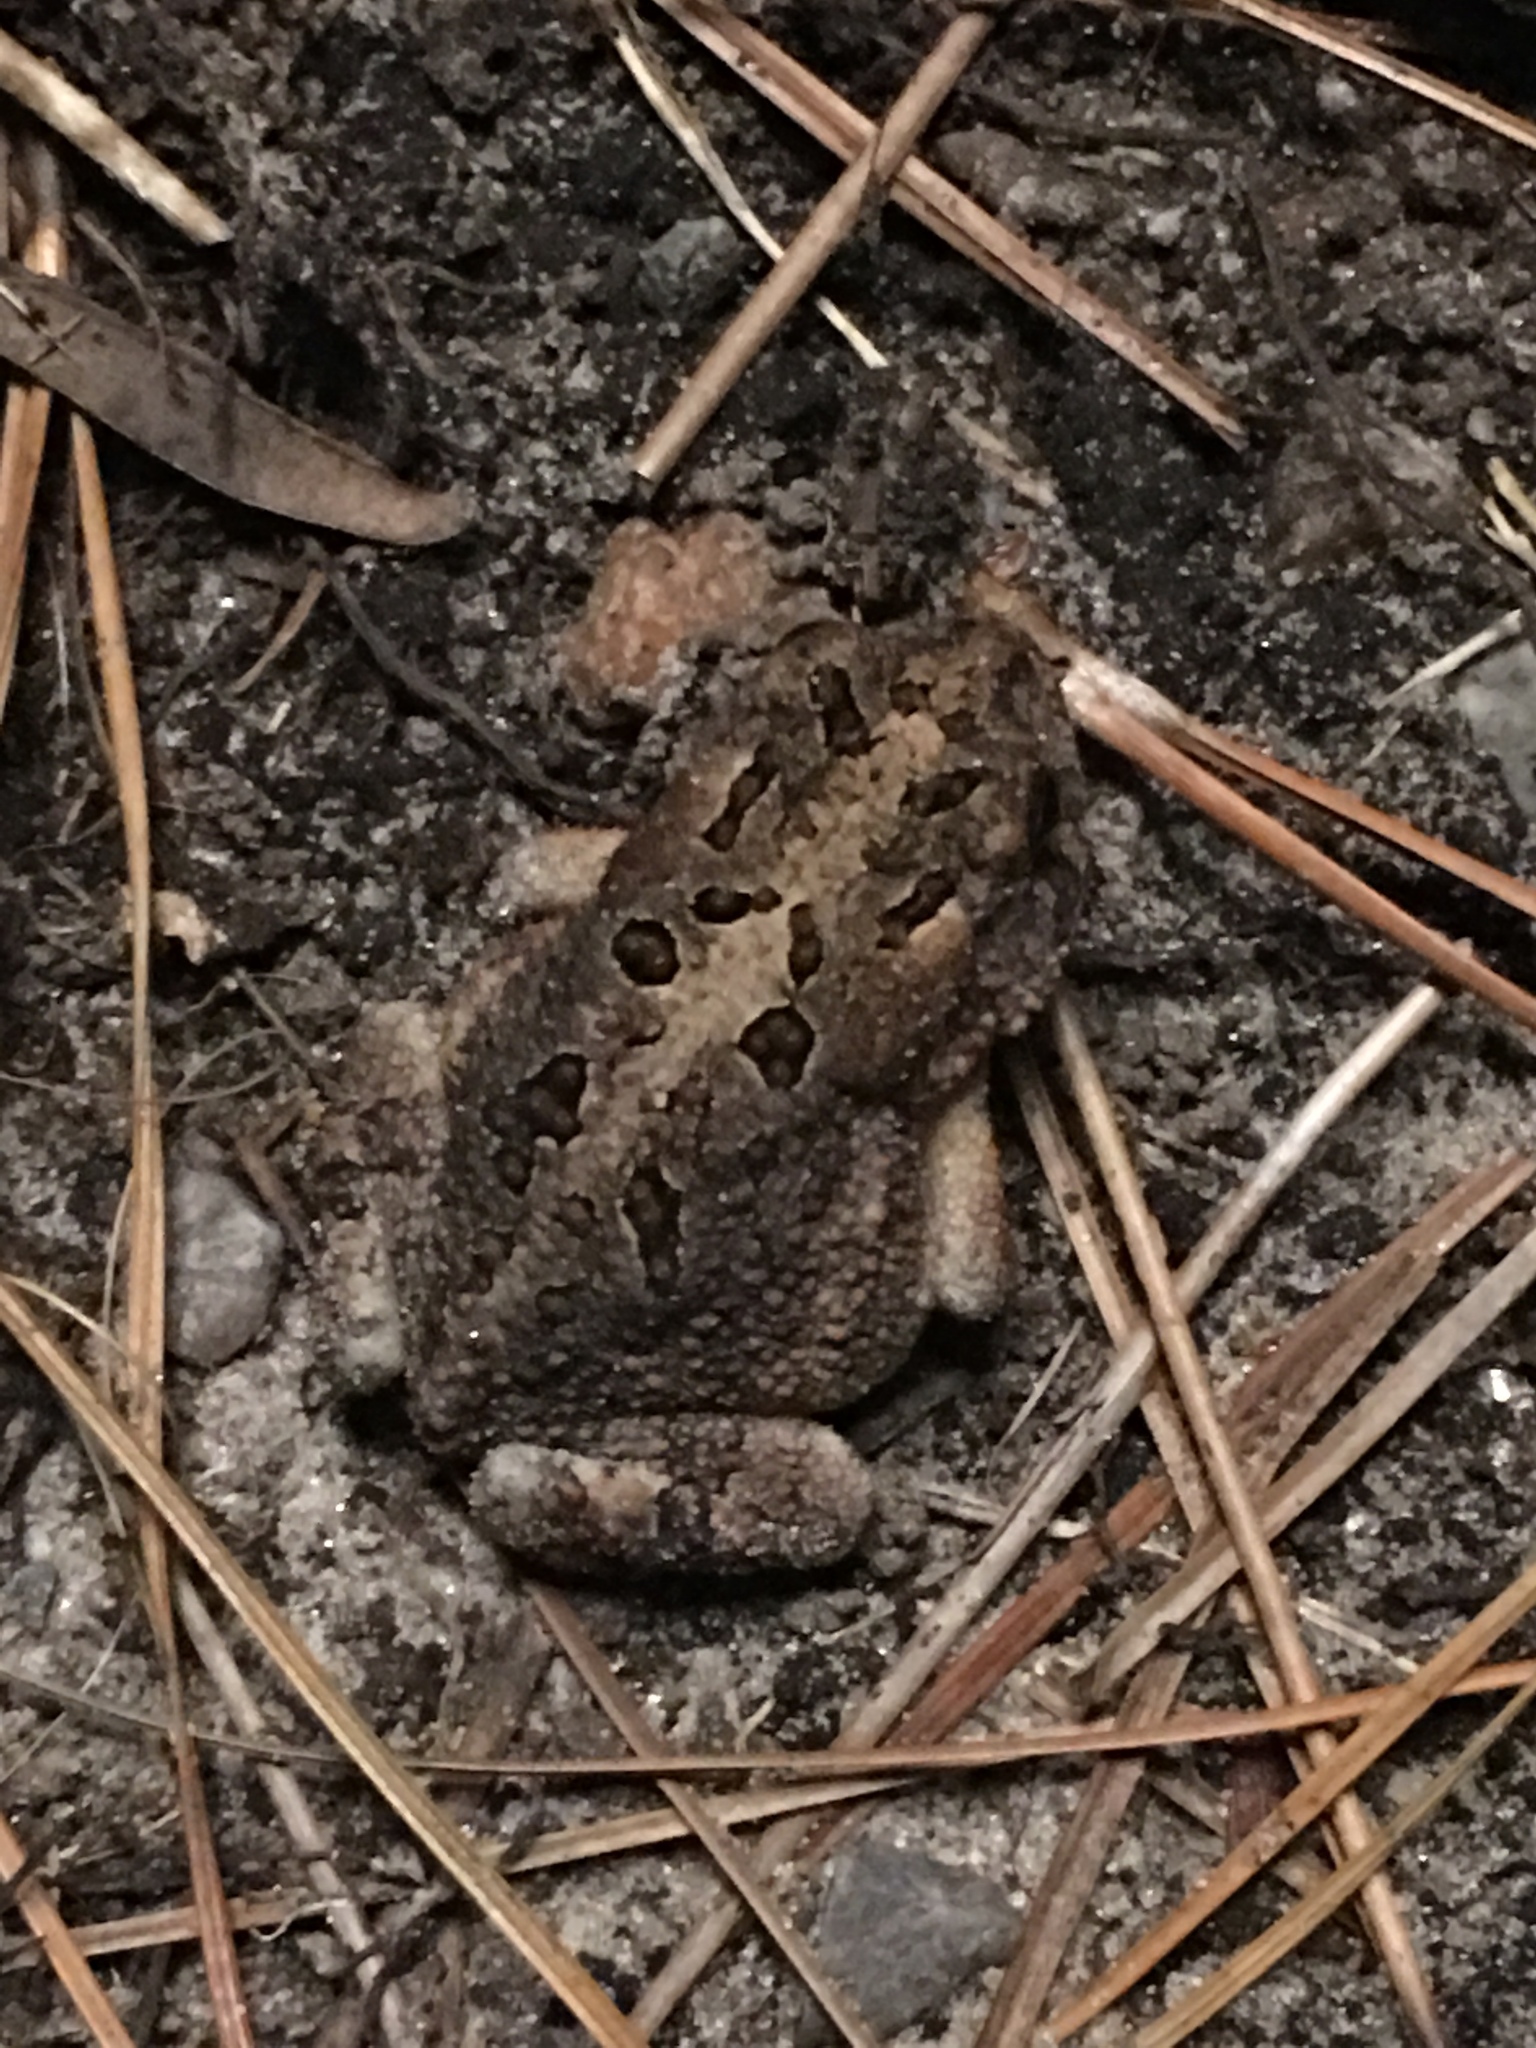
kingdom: Animalia
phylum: Chordata
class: Amphibia
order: Anura
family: Bufonidae
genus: Anaxyrus
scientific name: Anaxyrus terrestris
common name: Southern toad
